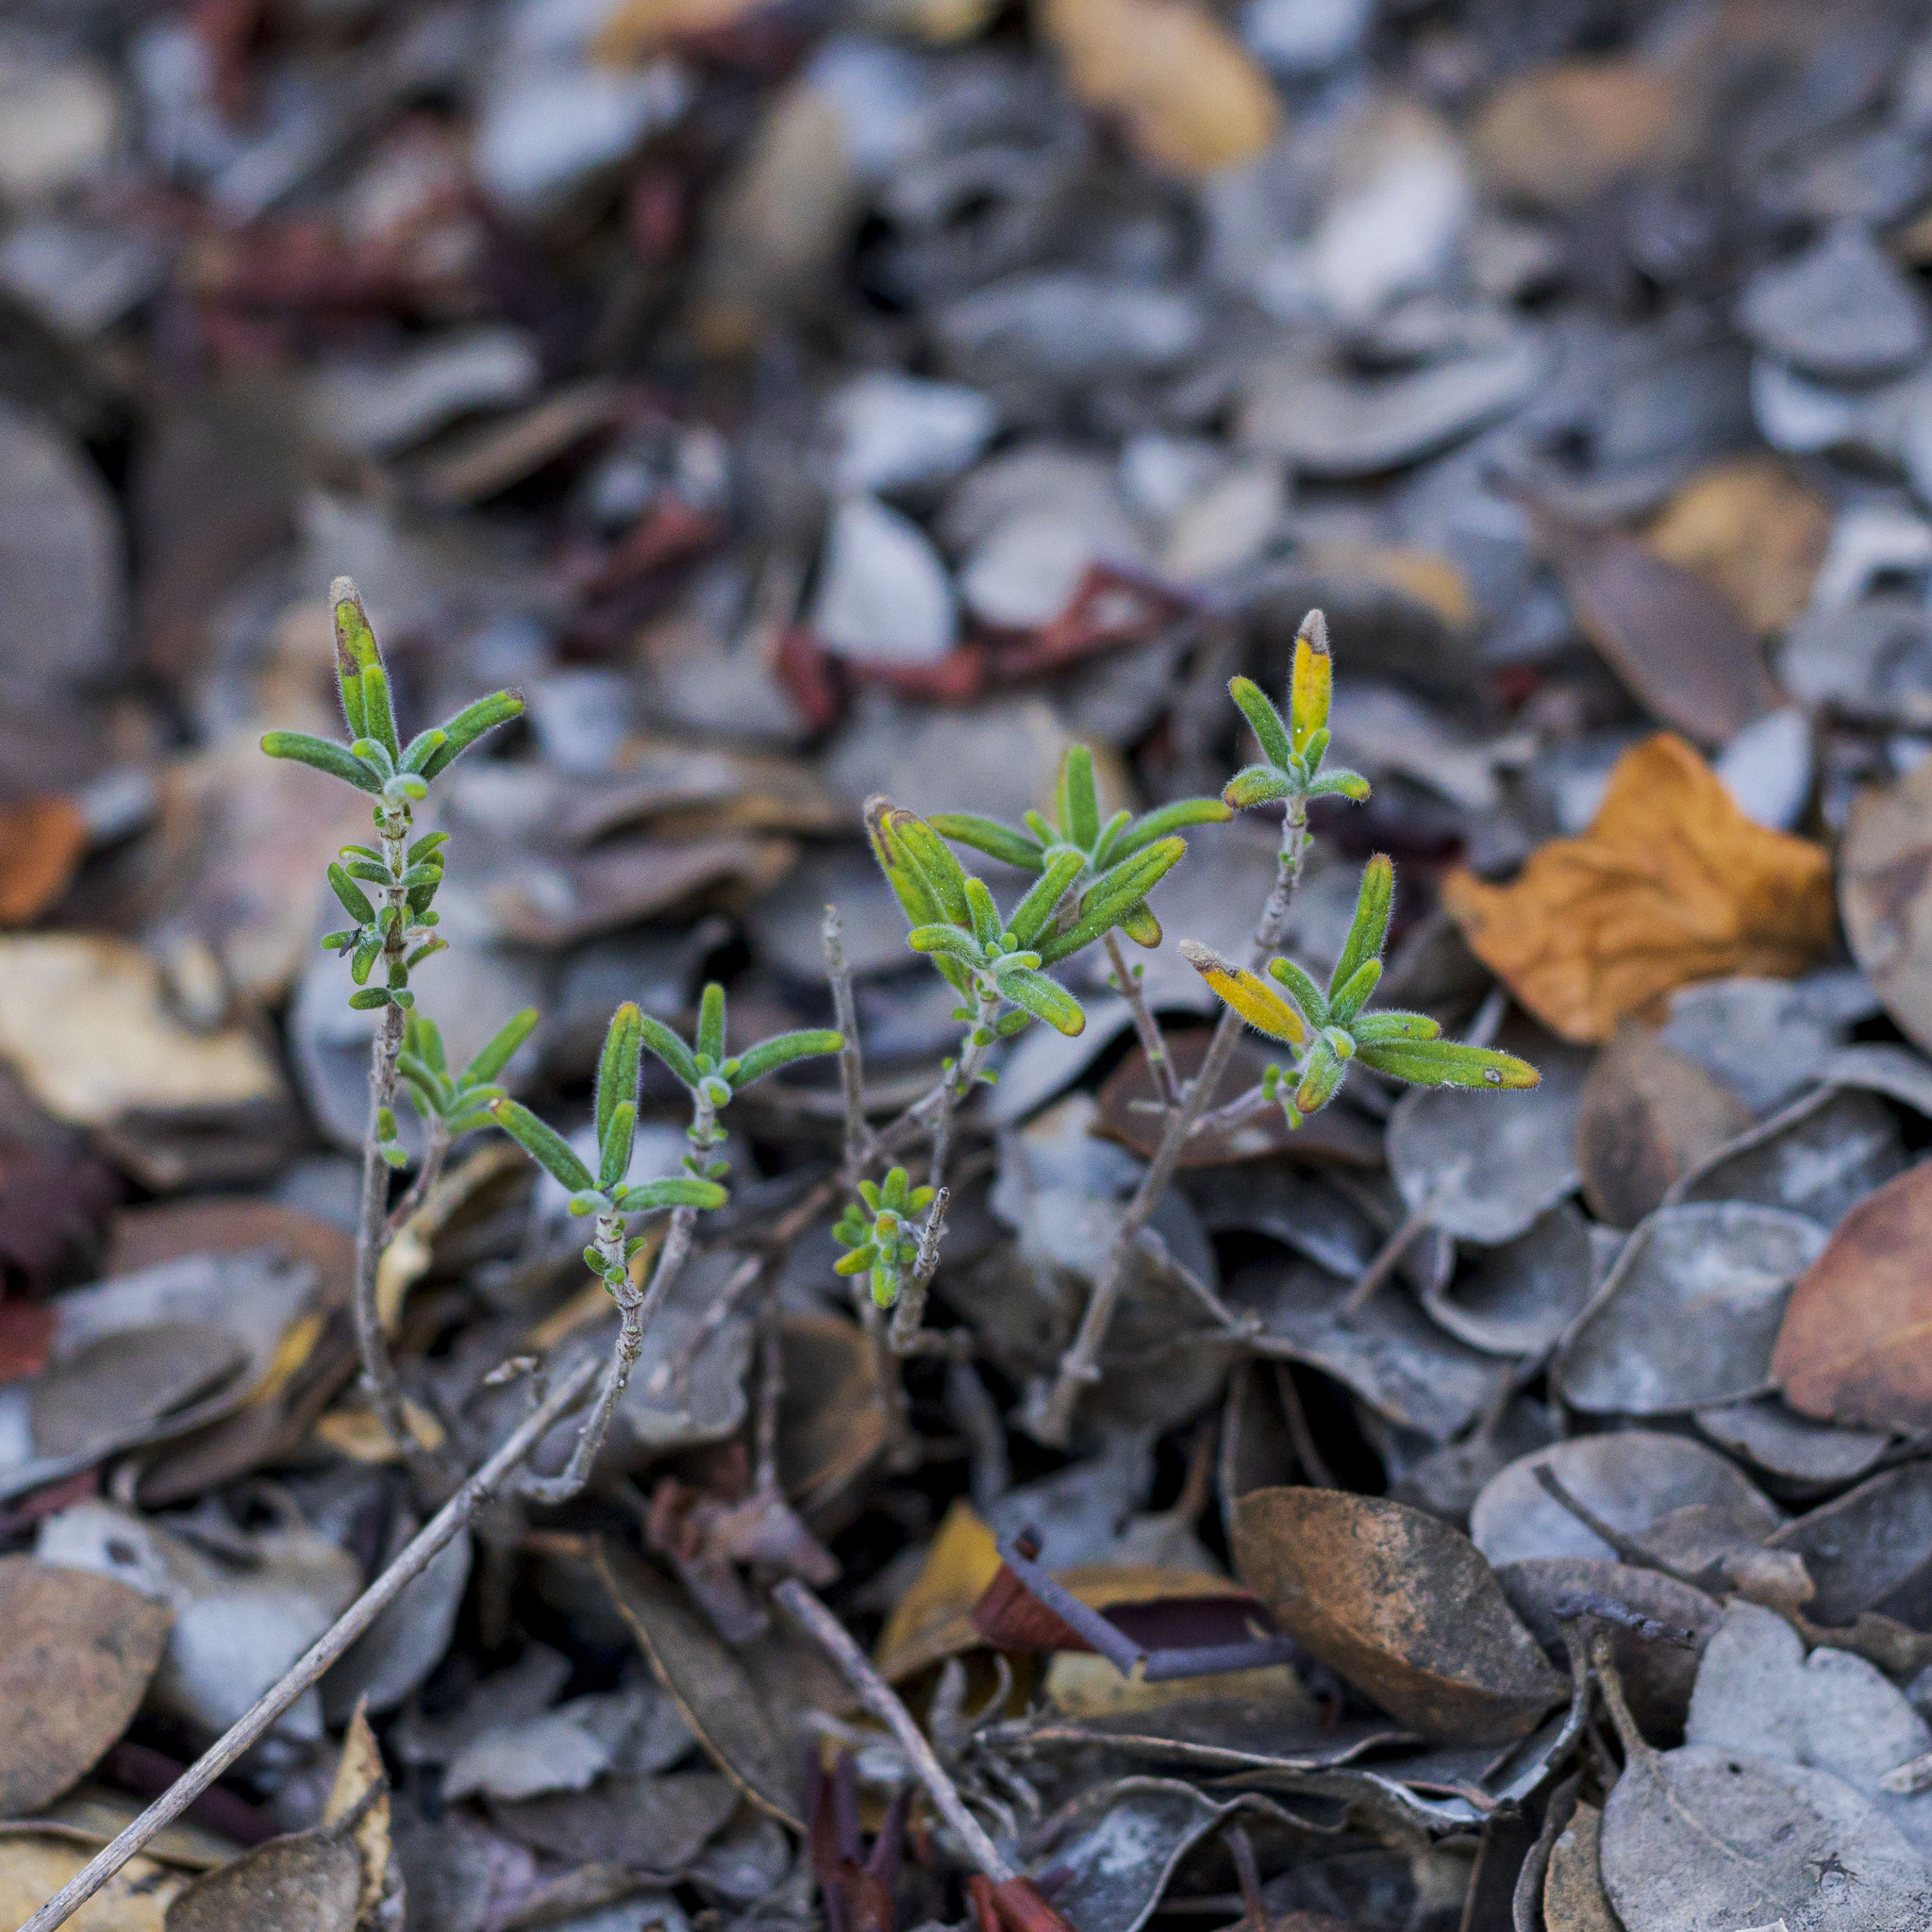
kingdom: Plantae
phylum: Tracheophyta
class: Magnoliopsida
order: Lamiales
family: Lamiaceae
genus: Monardella
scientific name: Monardella hypoleuca
